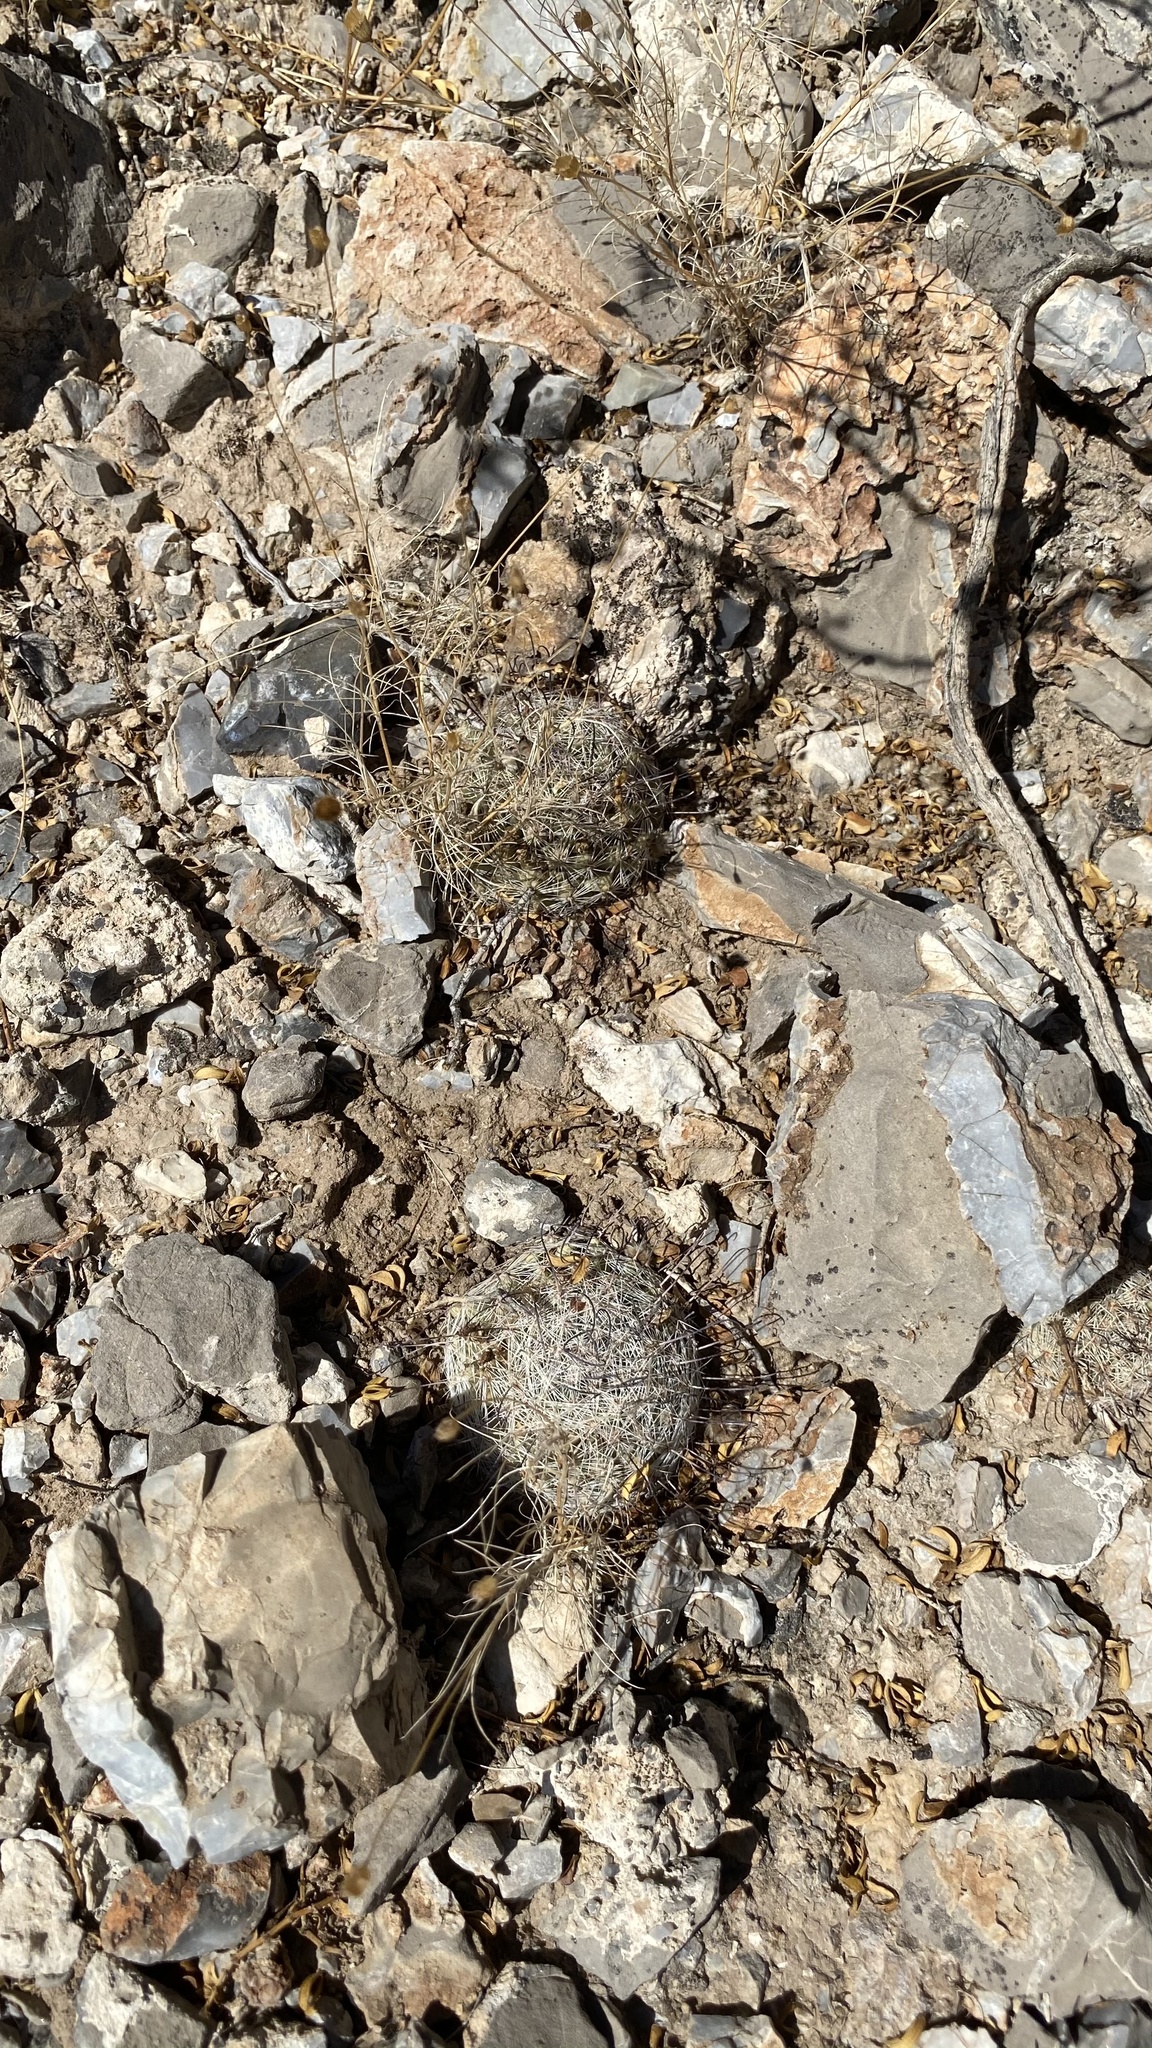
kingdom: Plantae
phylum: Tracheophyta
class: Magnoliopsida
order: Caryophyllales
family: Cactaceae
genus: Cochemiea
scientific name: Cochemiea grahamii
